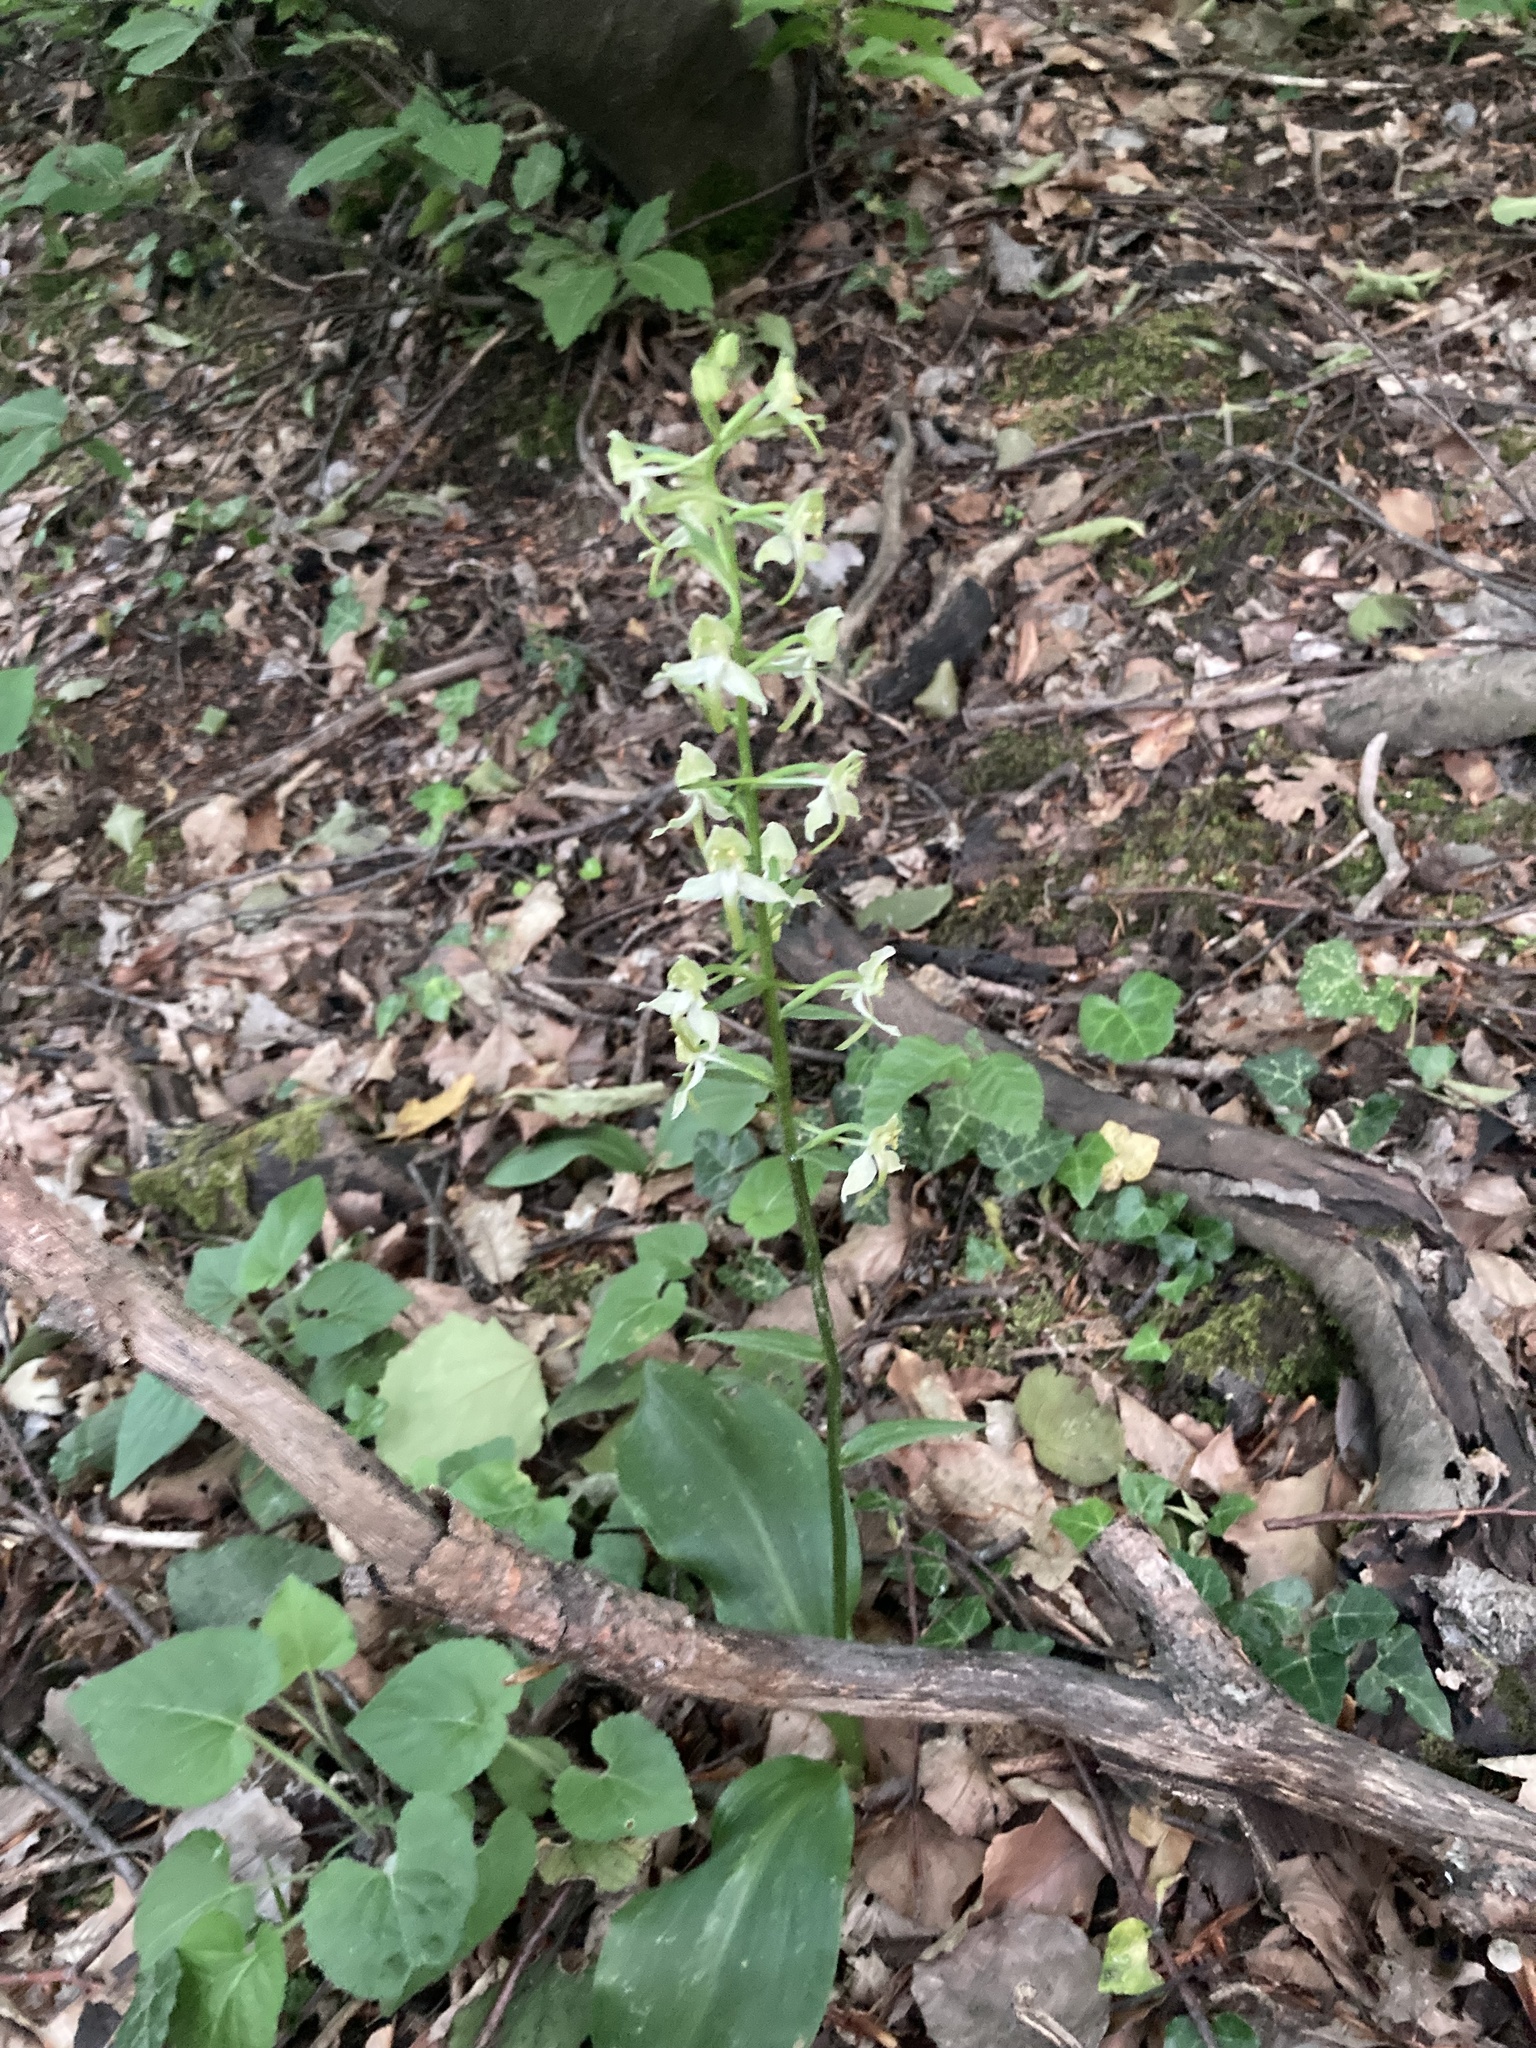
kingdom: Plantae
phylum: Tracheophyta
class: Liliopsida
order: Asparagales
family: Orchidaceae
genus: Platanthera
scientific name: Platanthera chlorantha
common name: Greater butterfly-orchid
